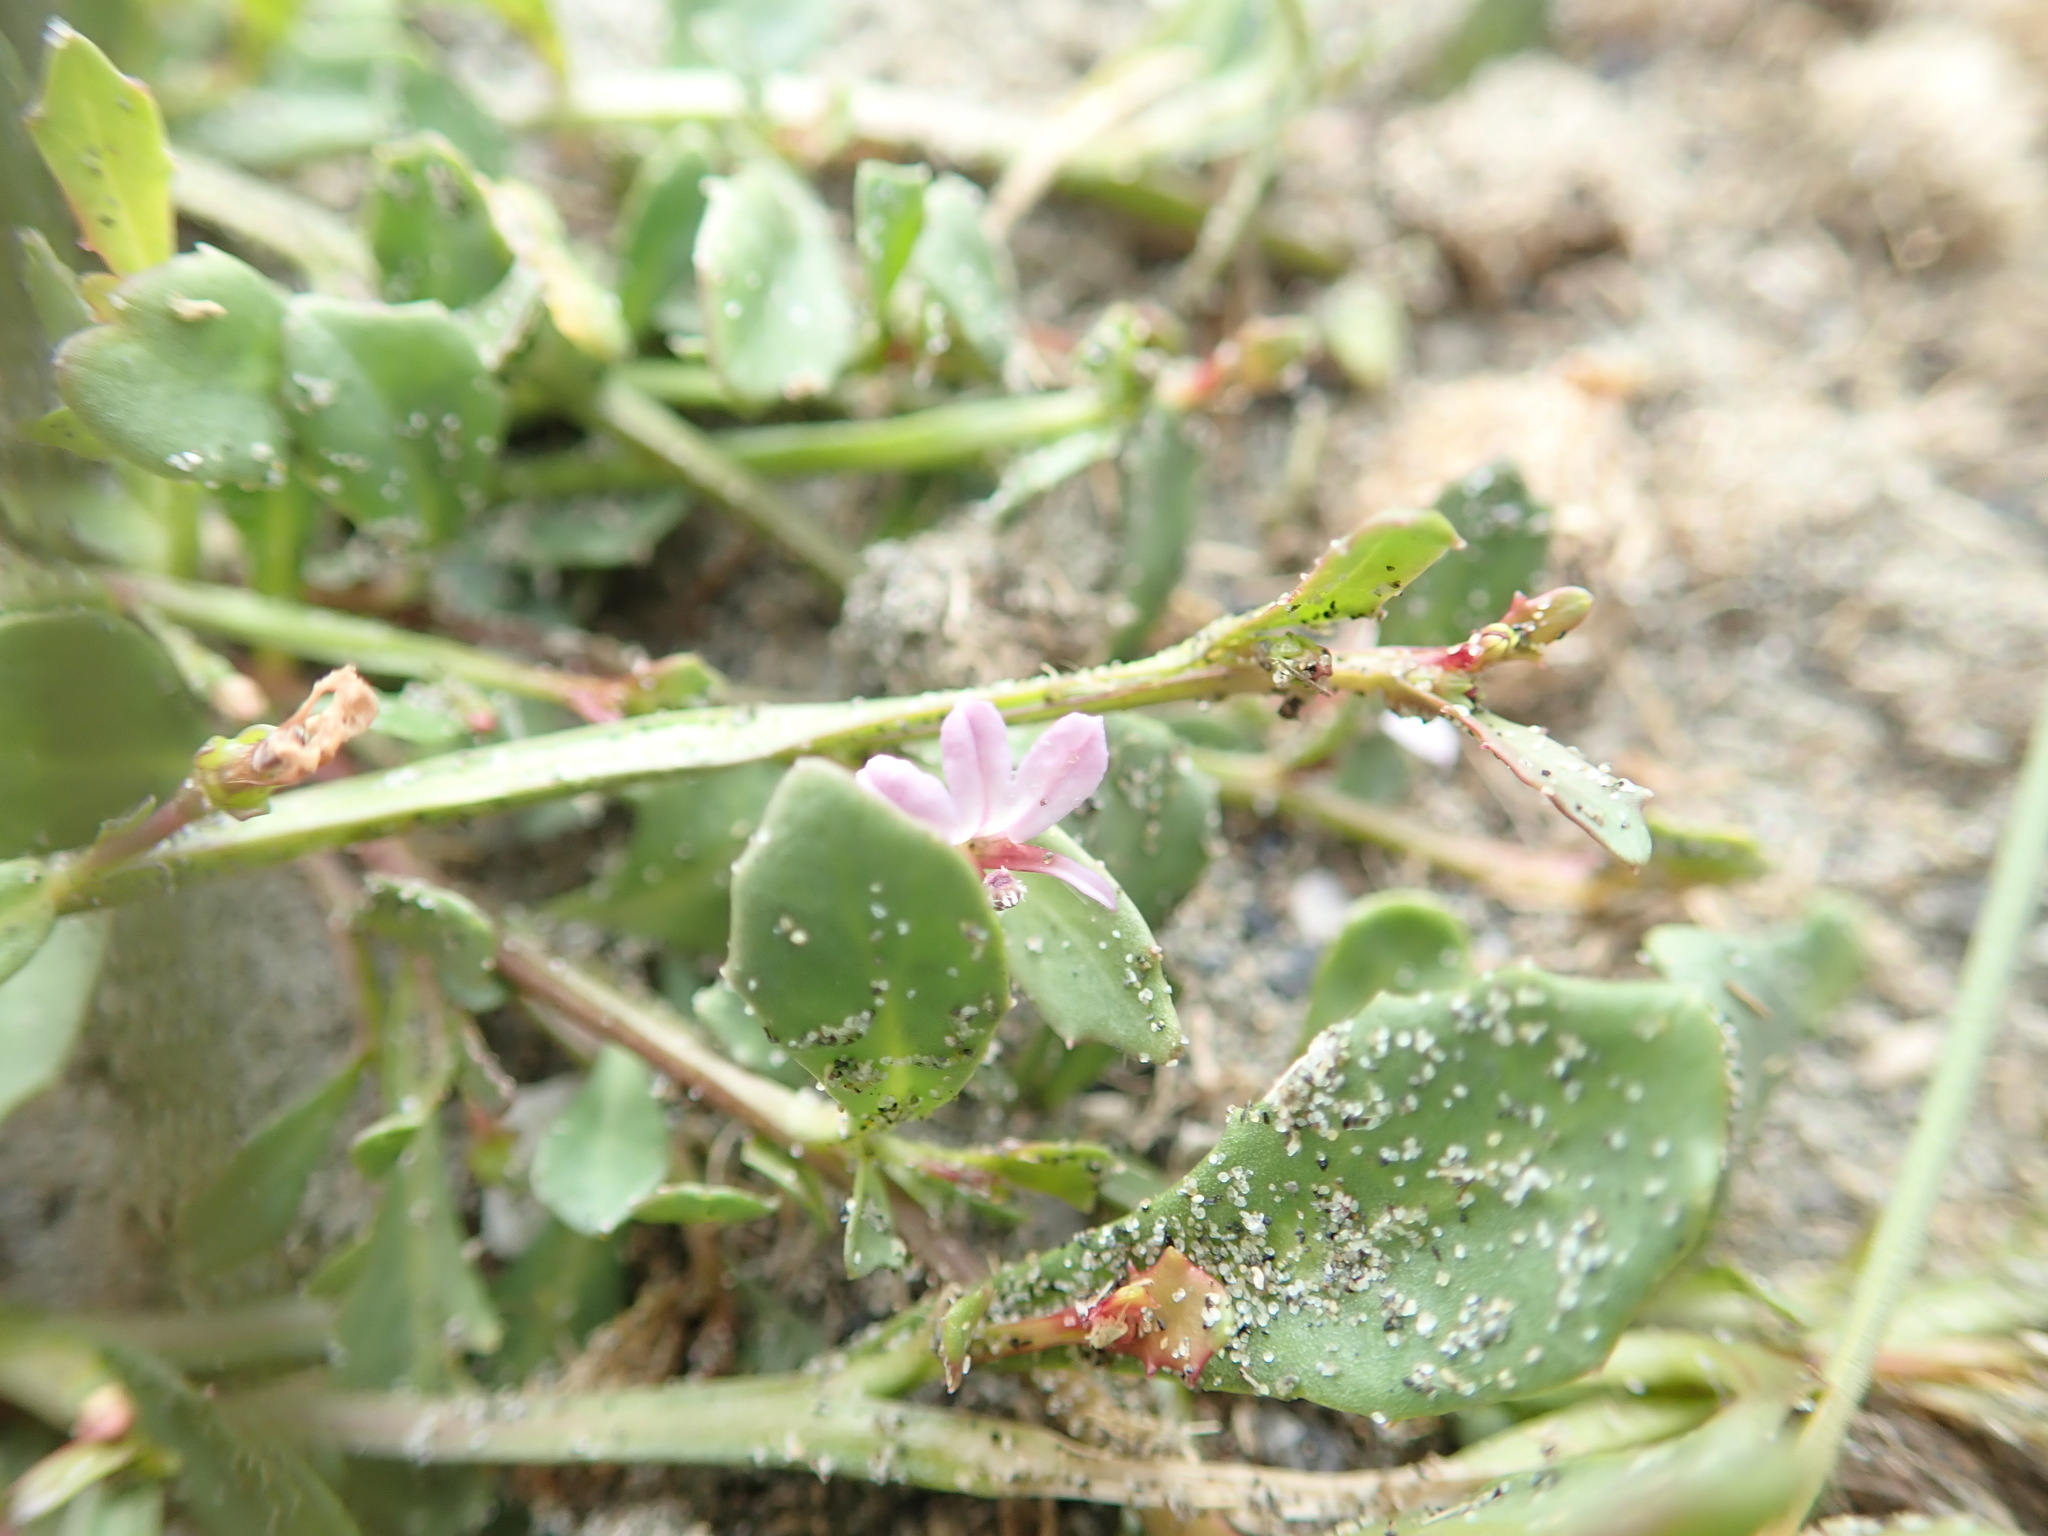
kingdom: Plantae
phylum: Tracheophyta
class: Magnoliopsida
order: Asterales
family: Campanulaceae
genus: Lobelia
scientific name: Lobelia anceps
